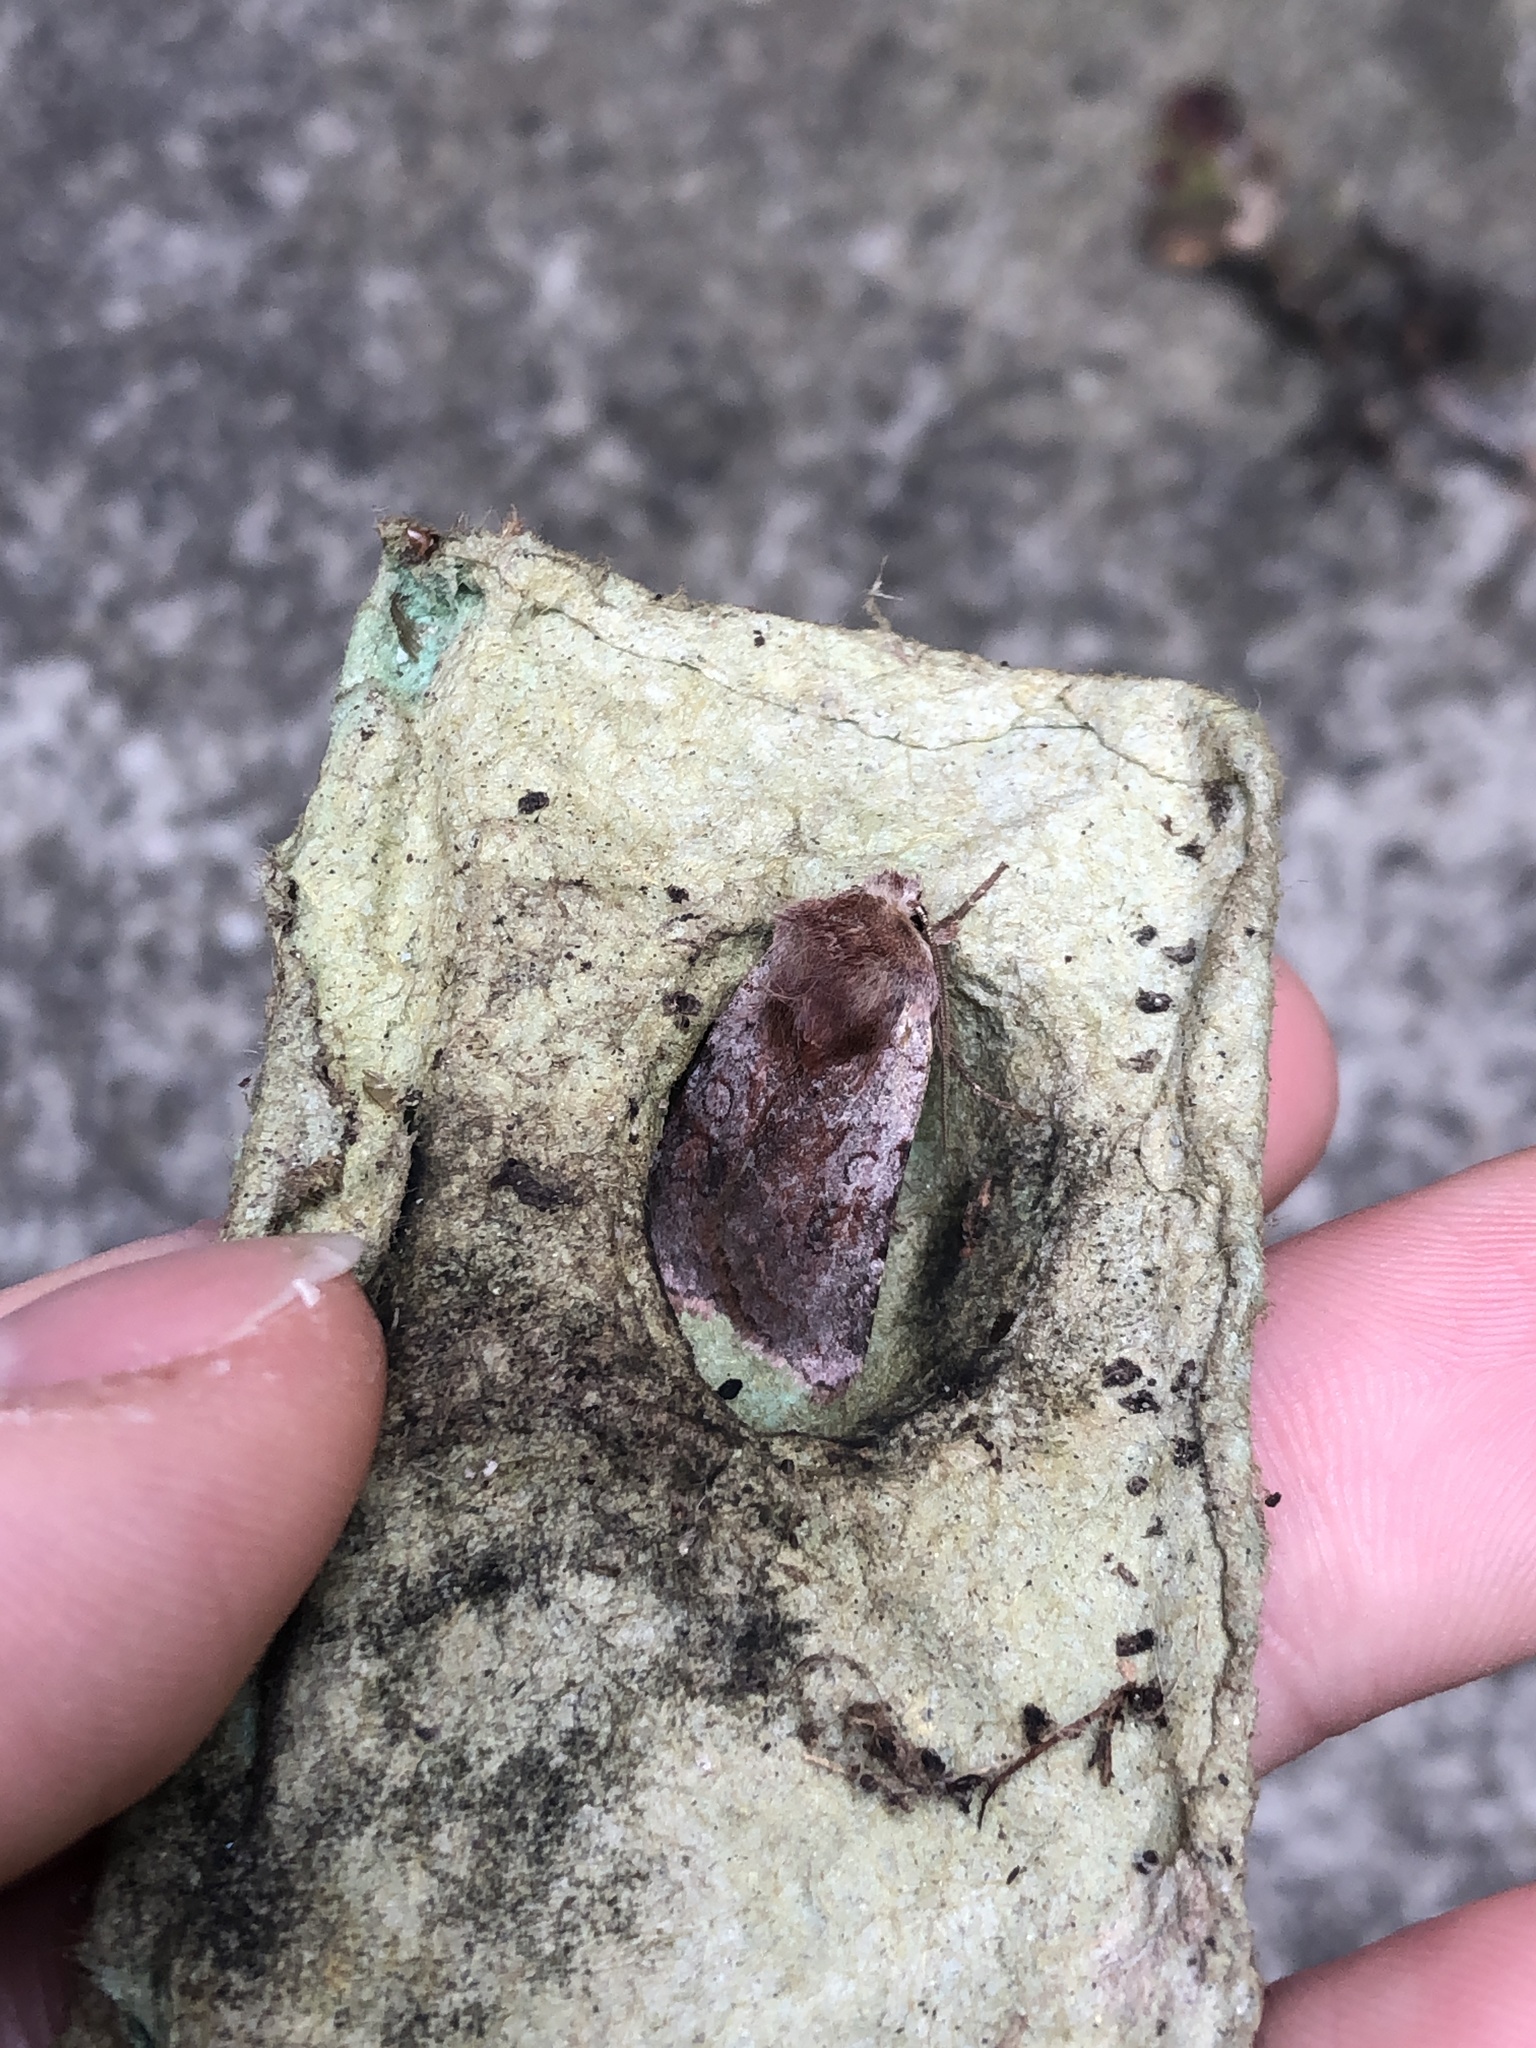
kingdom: Animalia
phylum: Arthropoda
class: Insecta
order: Lepidoptera
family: Noctuidae
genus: Cerastis
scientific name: Cerastis rubricosa
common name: Red chestnut
